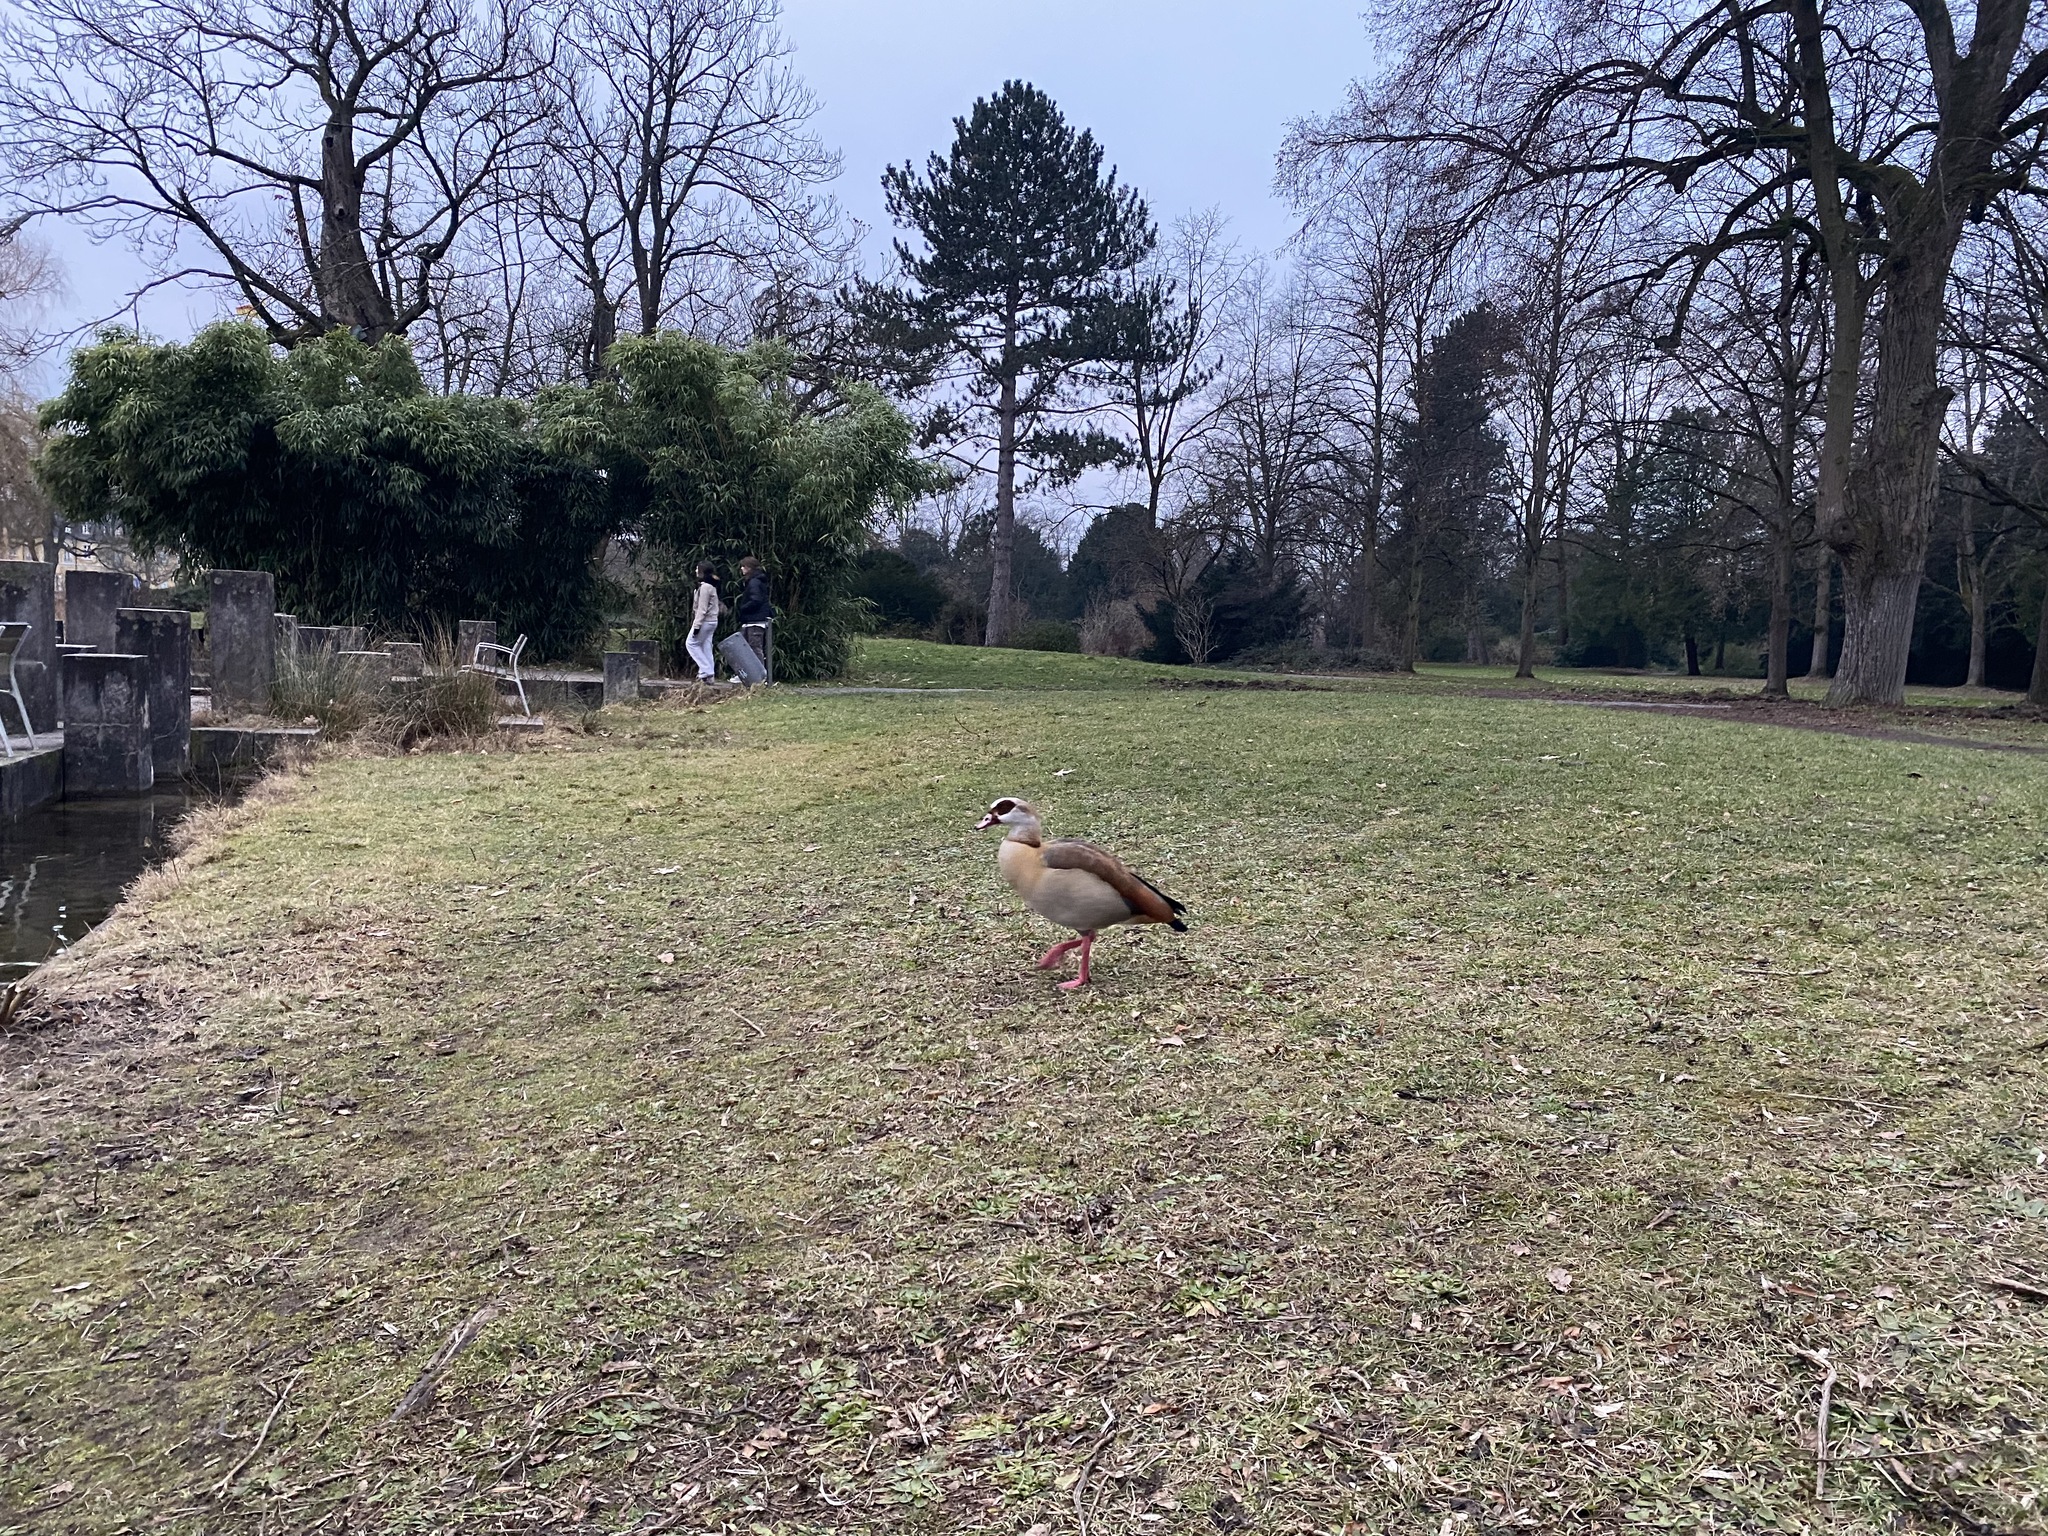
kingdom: Animalia
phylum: Chordata
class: Aves
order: Anseriformes
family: Anatidae
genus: Alopochen
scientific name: Alopochen aegyptiaca
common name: Egyptian goose
